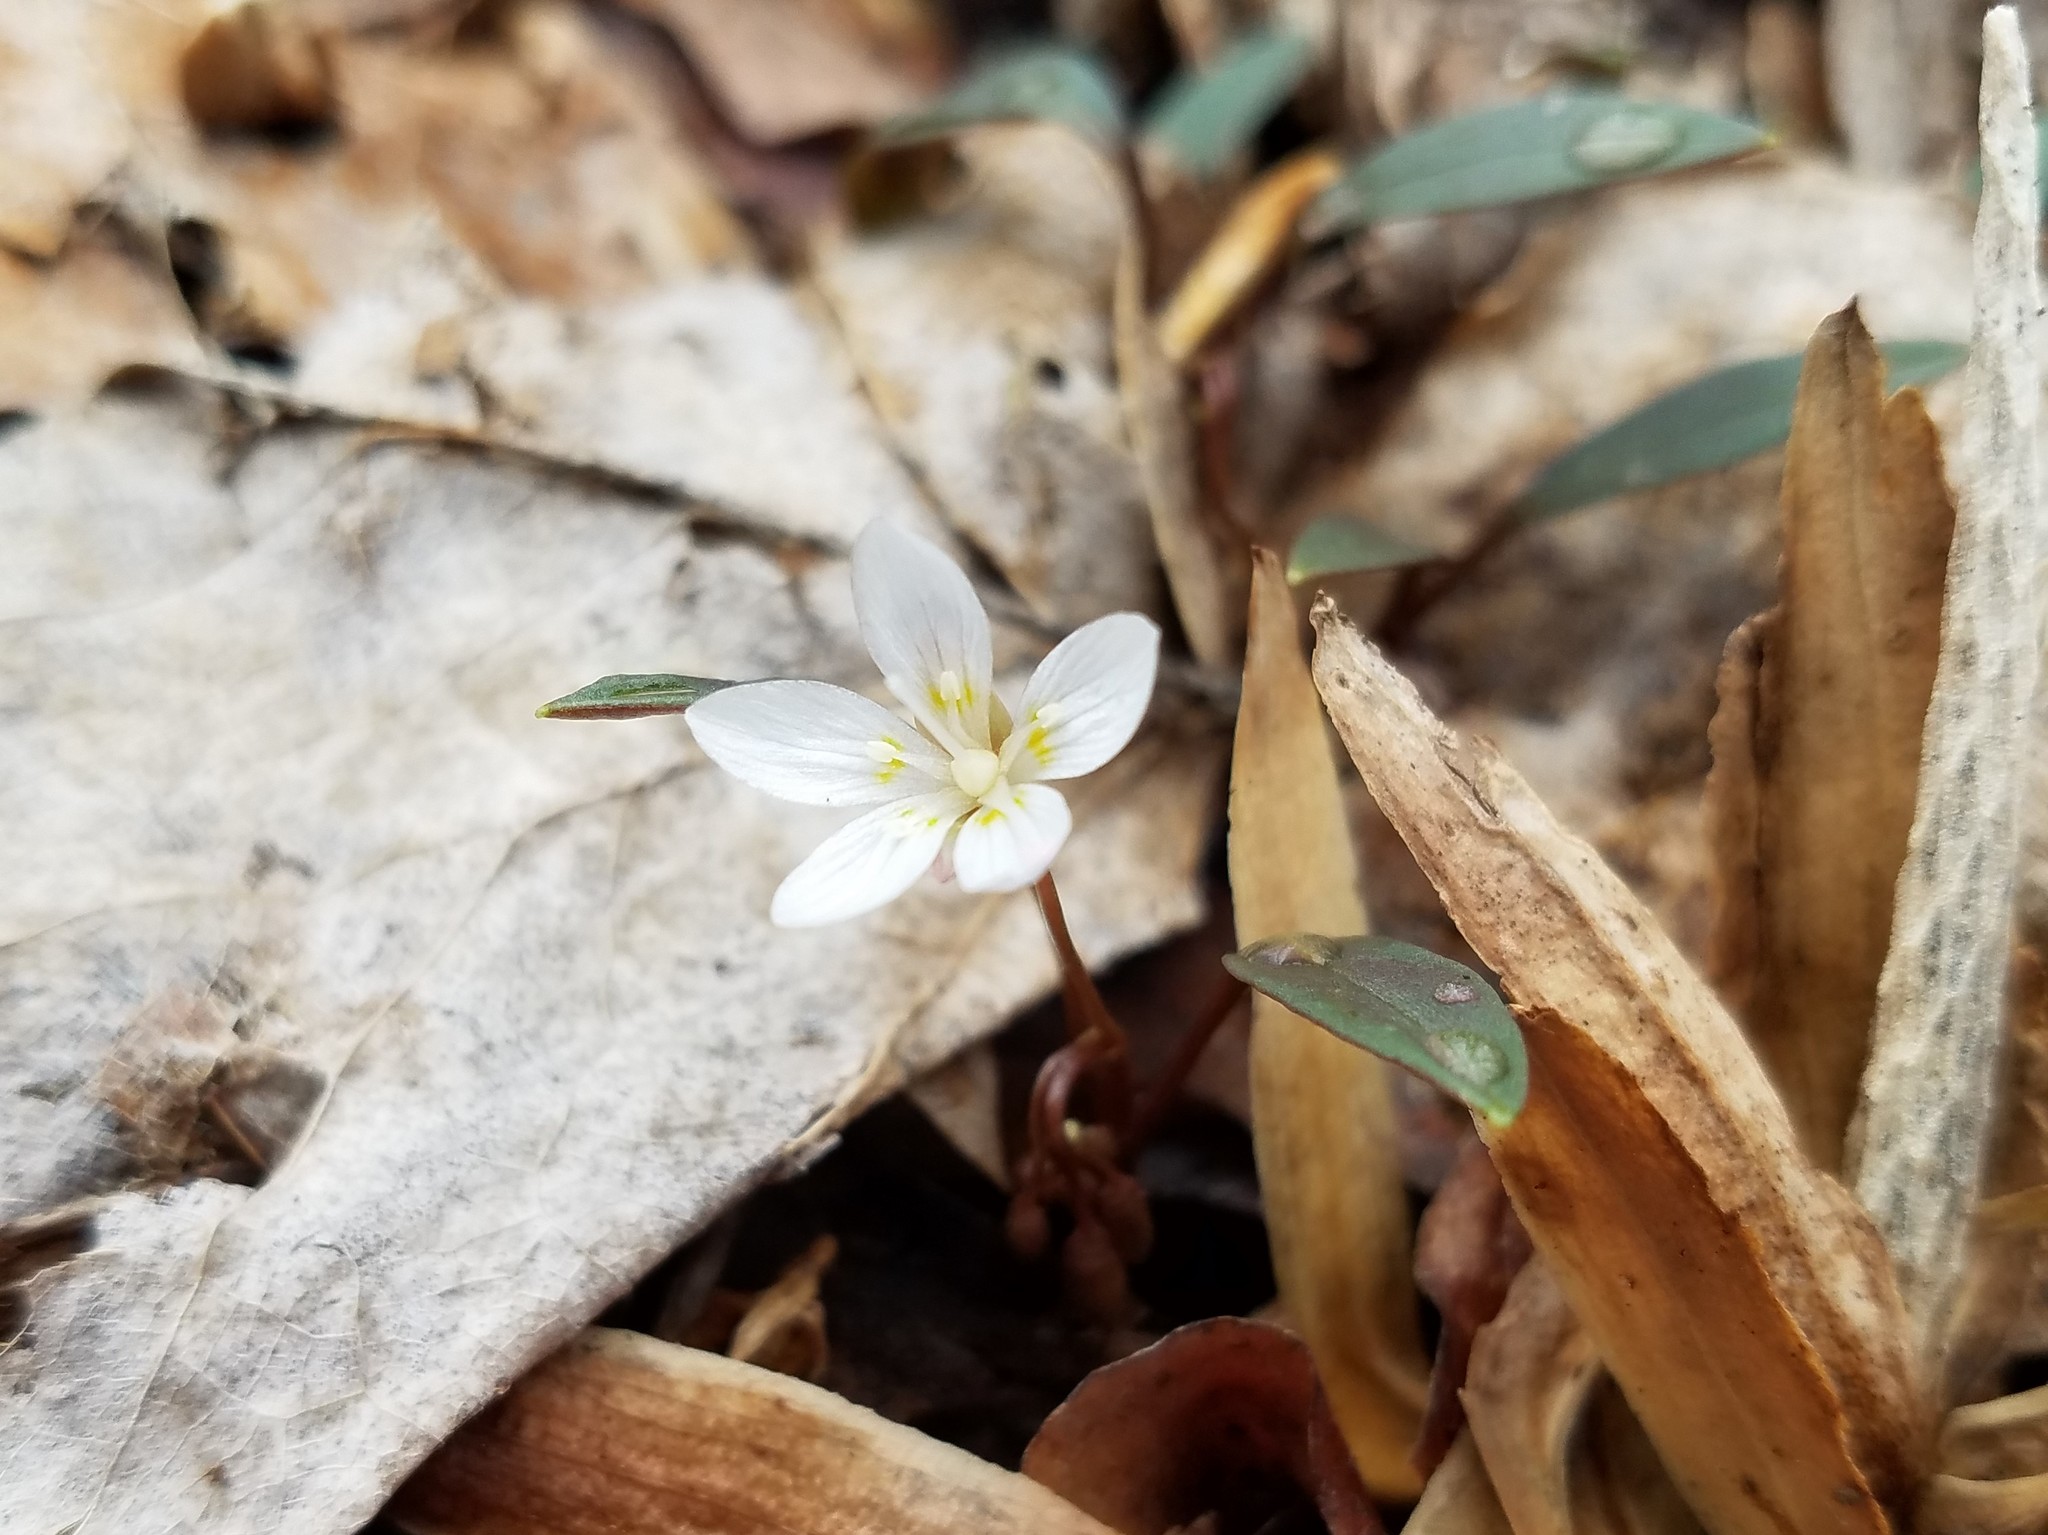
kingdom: Plantae
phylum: Tracheophyta
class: Magnoliopsida
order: Caryophyllales
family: Montiaceae
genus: Claytonia
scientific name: Claytonia caroliniana
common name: Carolina spring beauty
